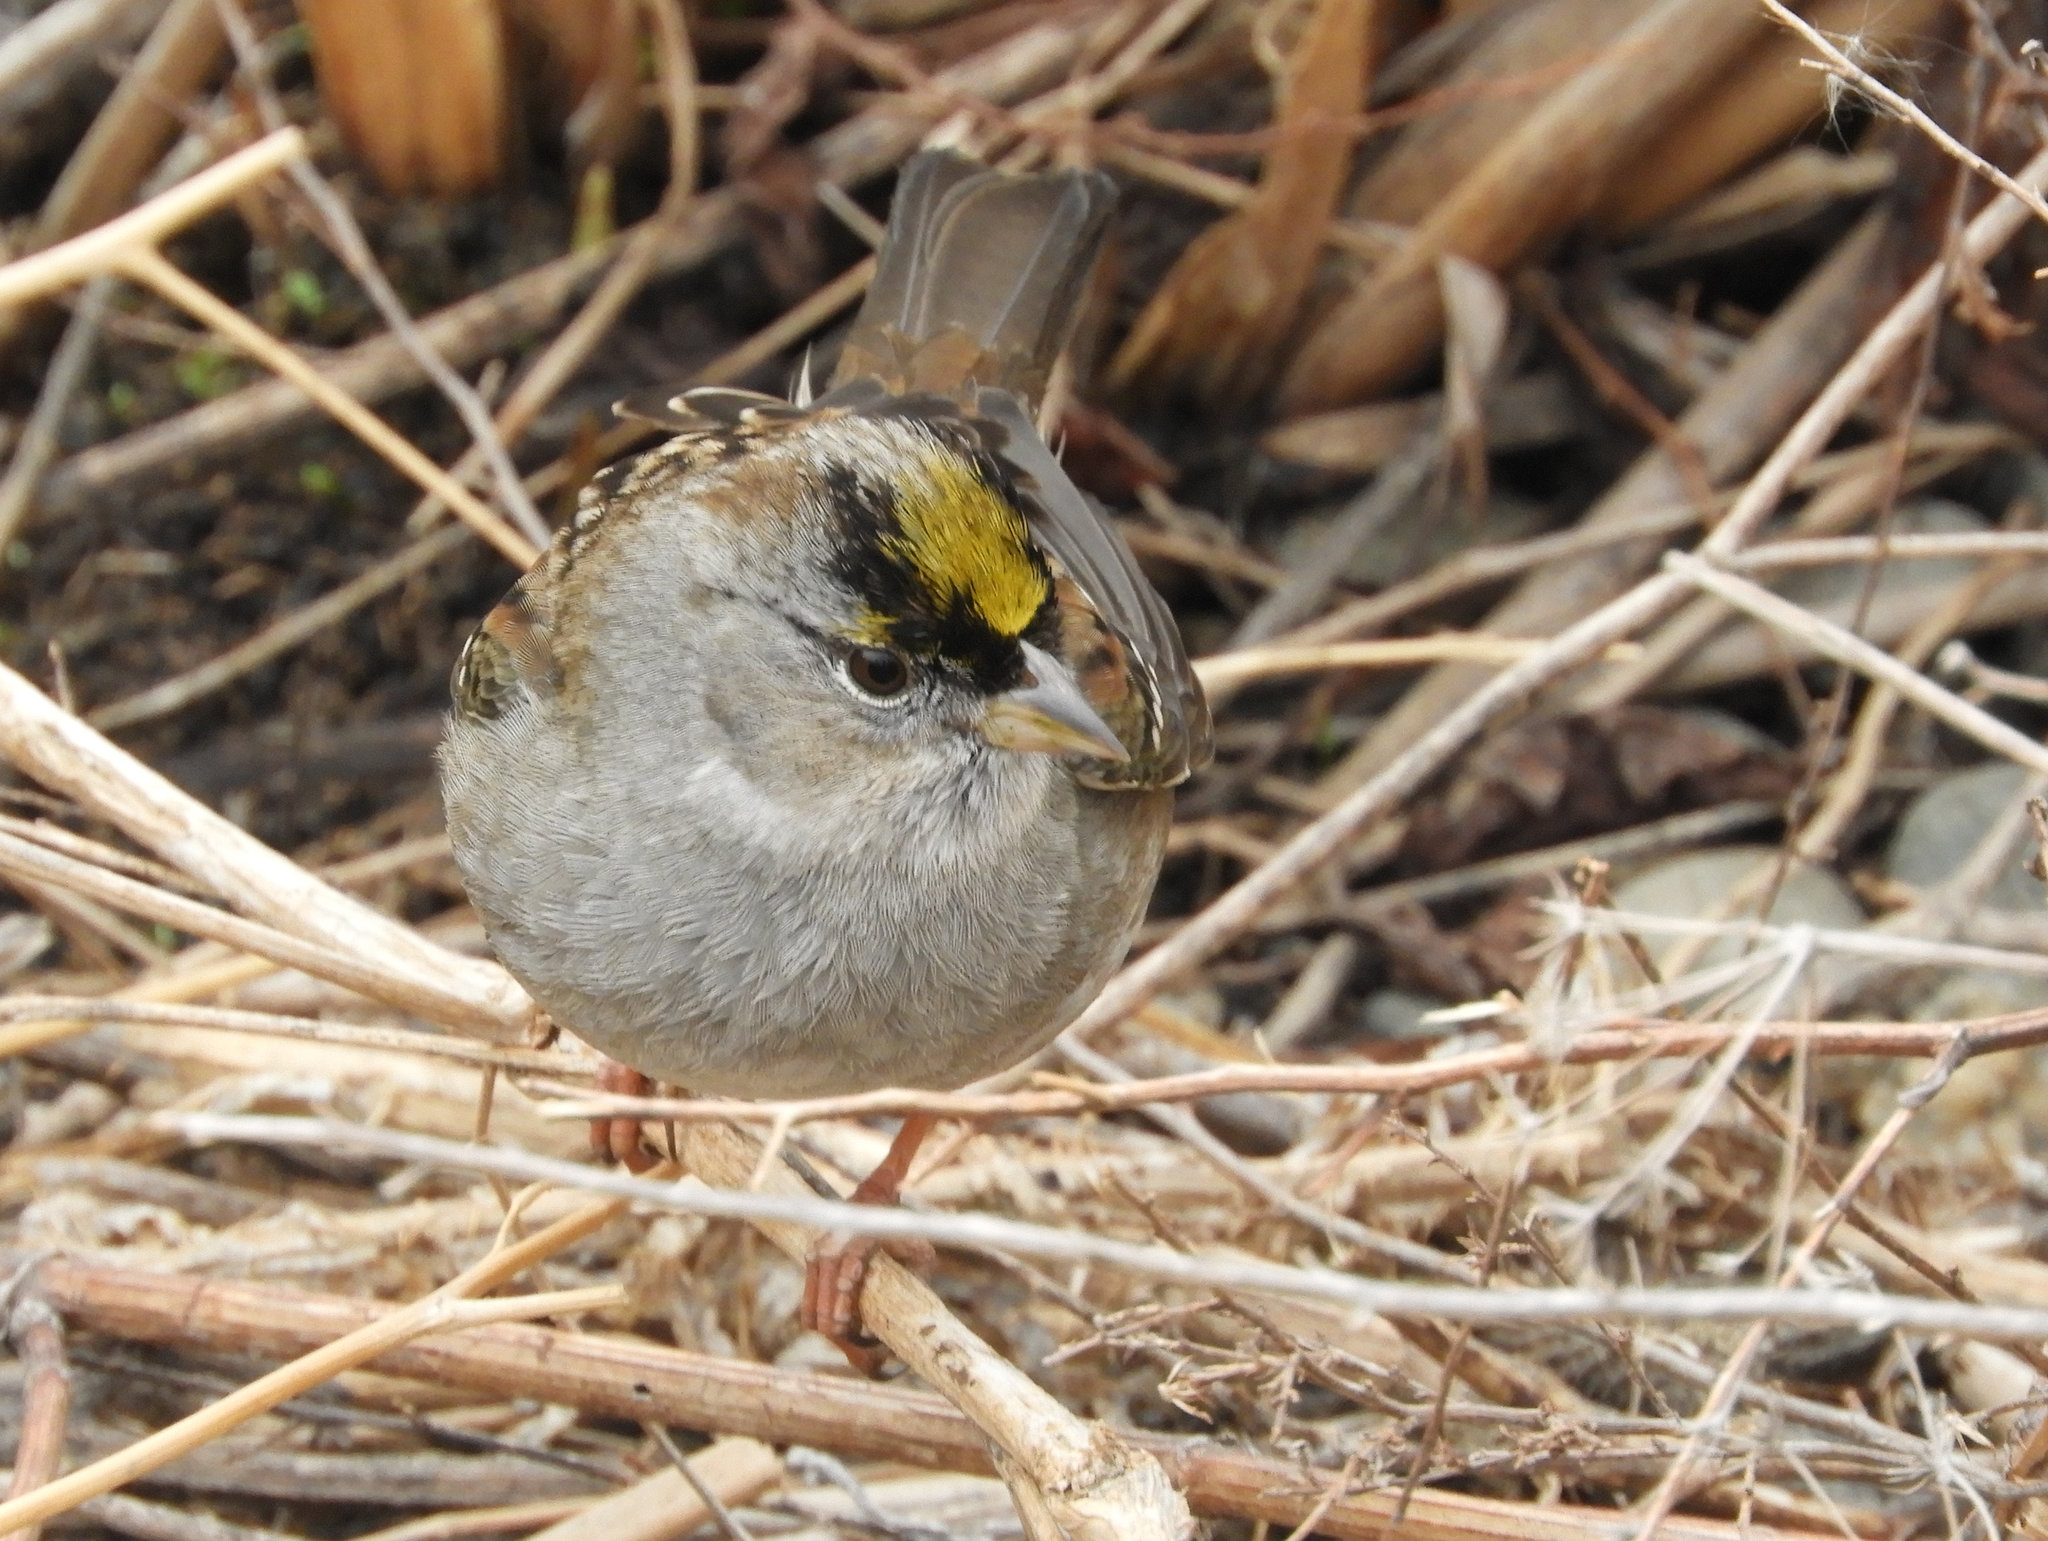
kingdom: Animalia
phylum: Chordata
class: Aves
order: Passeriformes
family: Passerellidae
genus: Zonotrichia
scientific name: Zonotrichia atricapilla
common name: Golden-crowned sparrow
